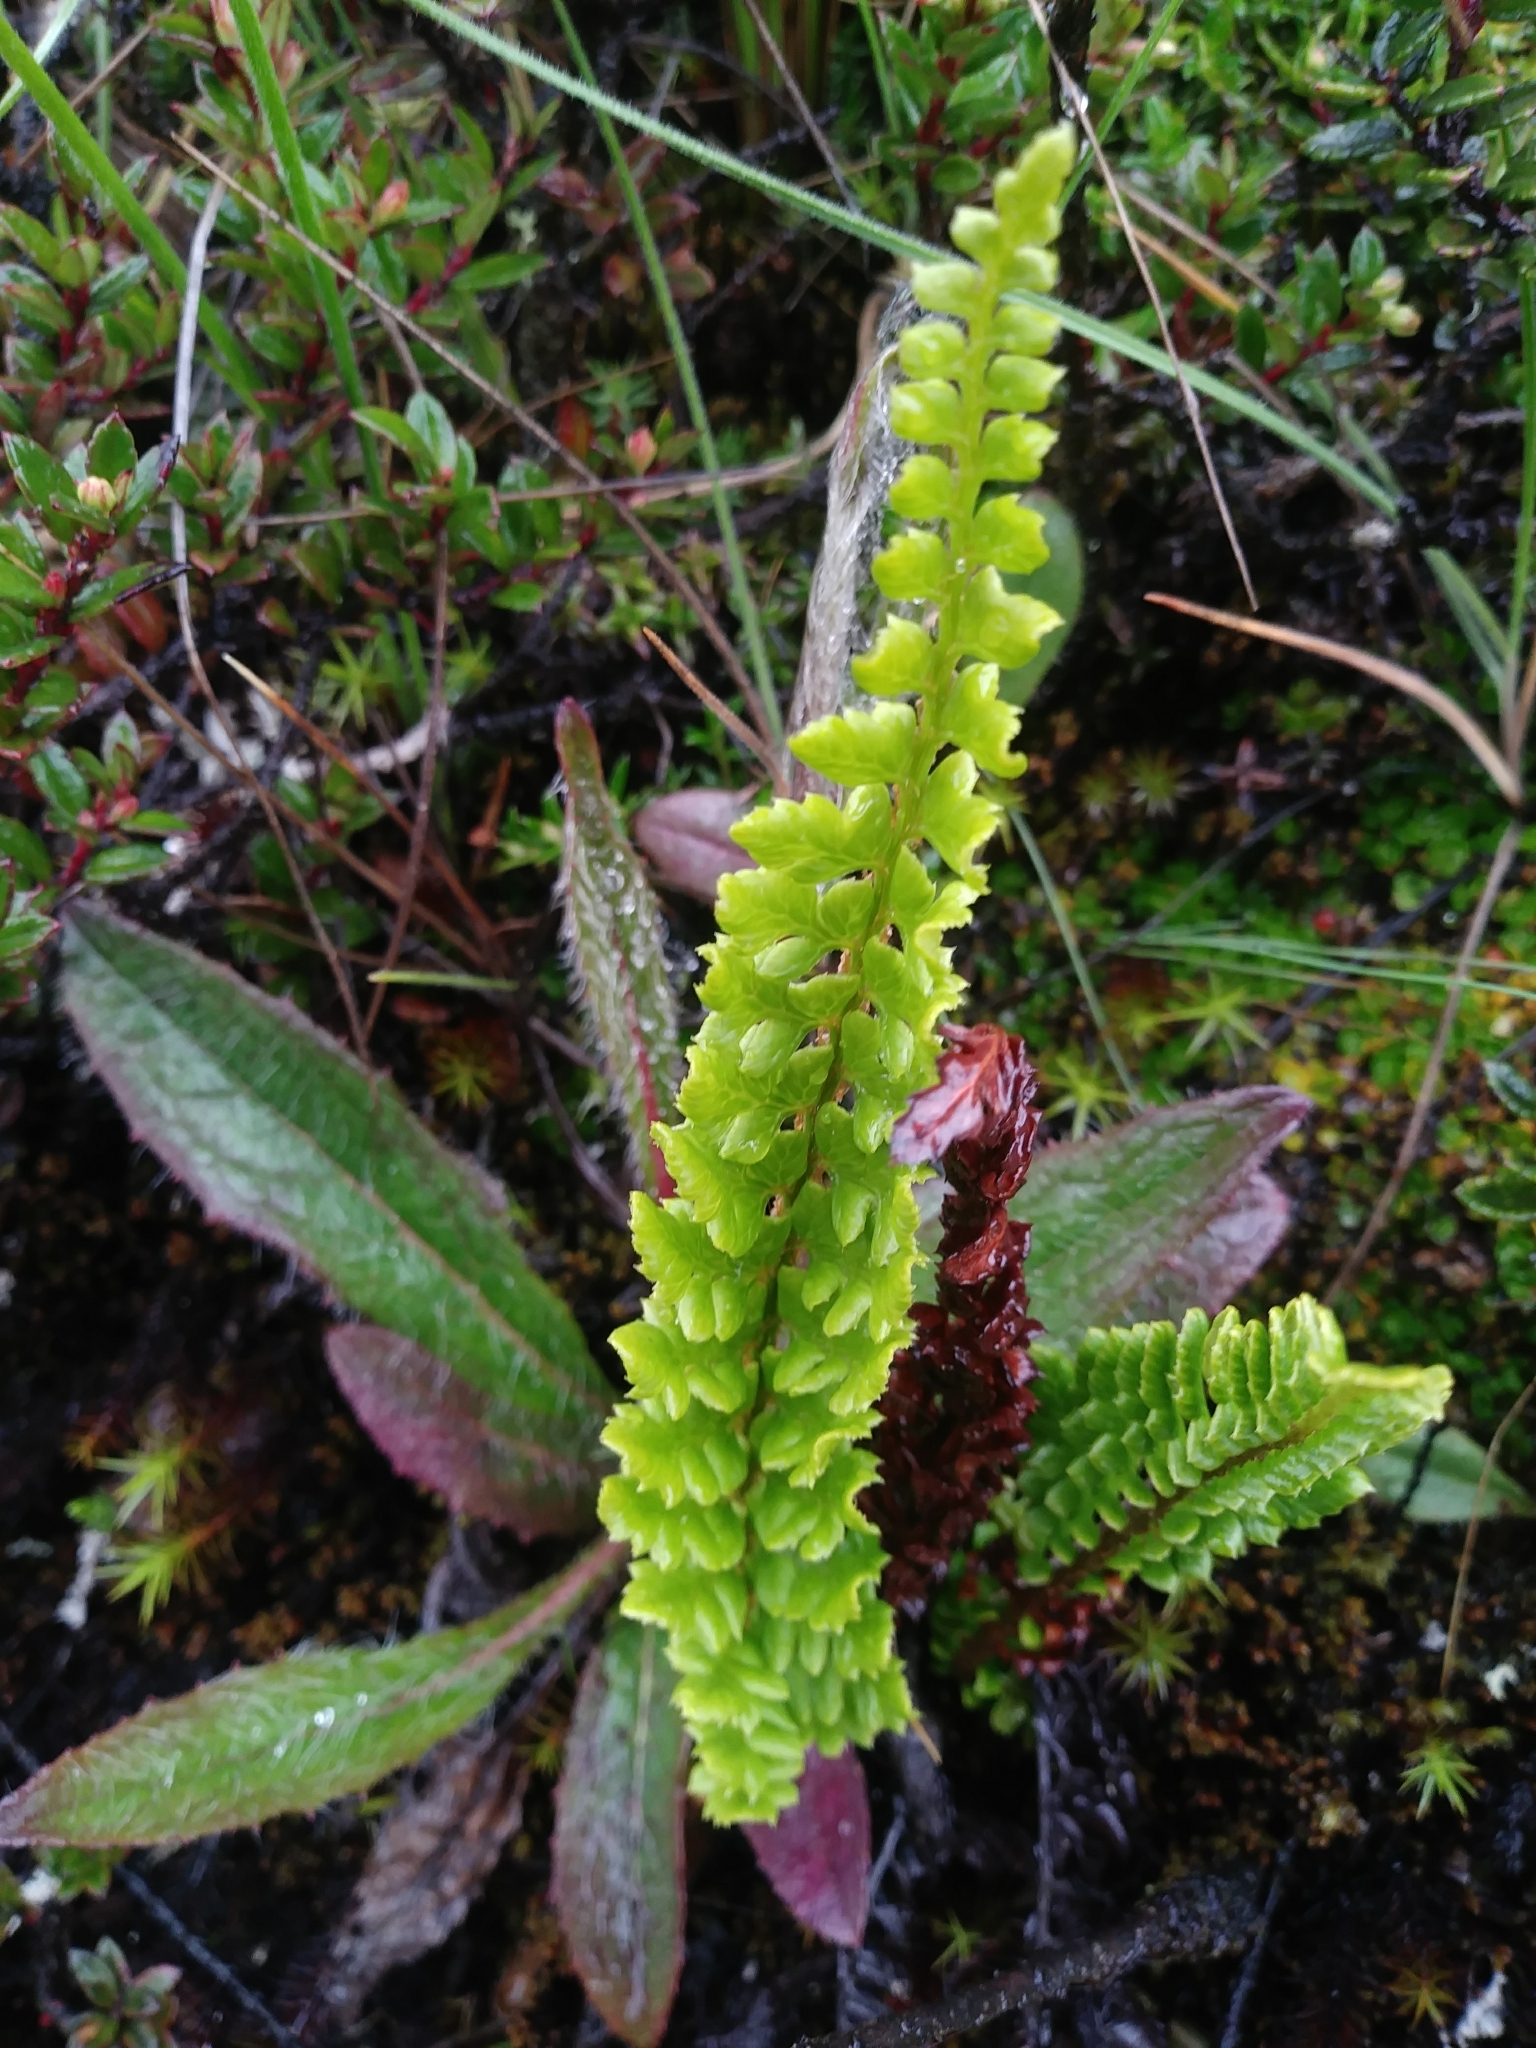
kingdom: Plantae
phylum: Tracheophyta
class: Polypodiopsida
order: Polypodiales
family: Dryopteridaceae
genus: Polystichum
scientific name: Polystichum orbiculatum
